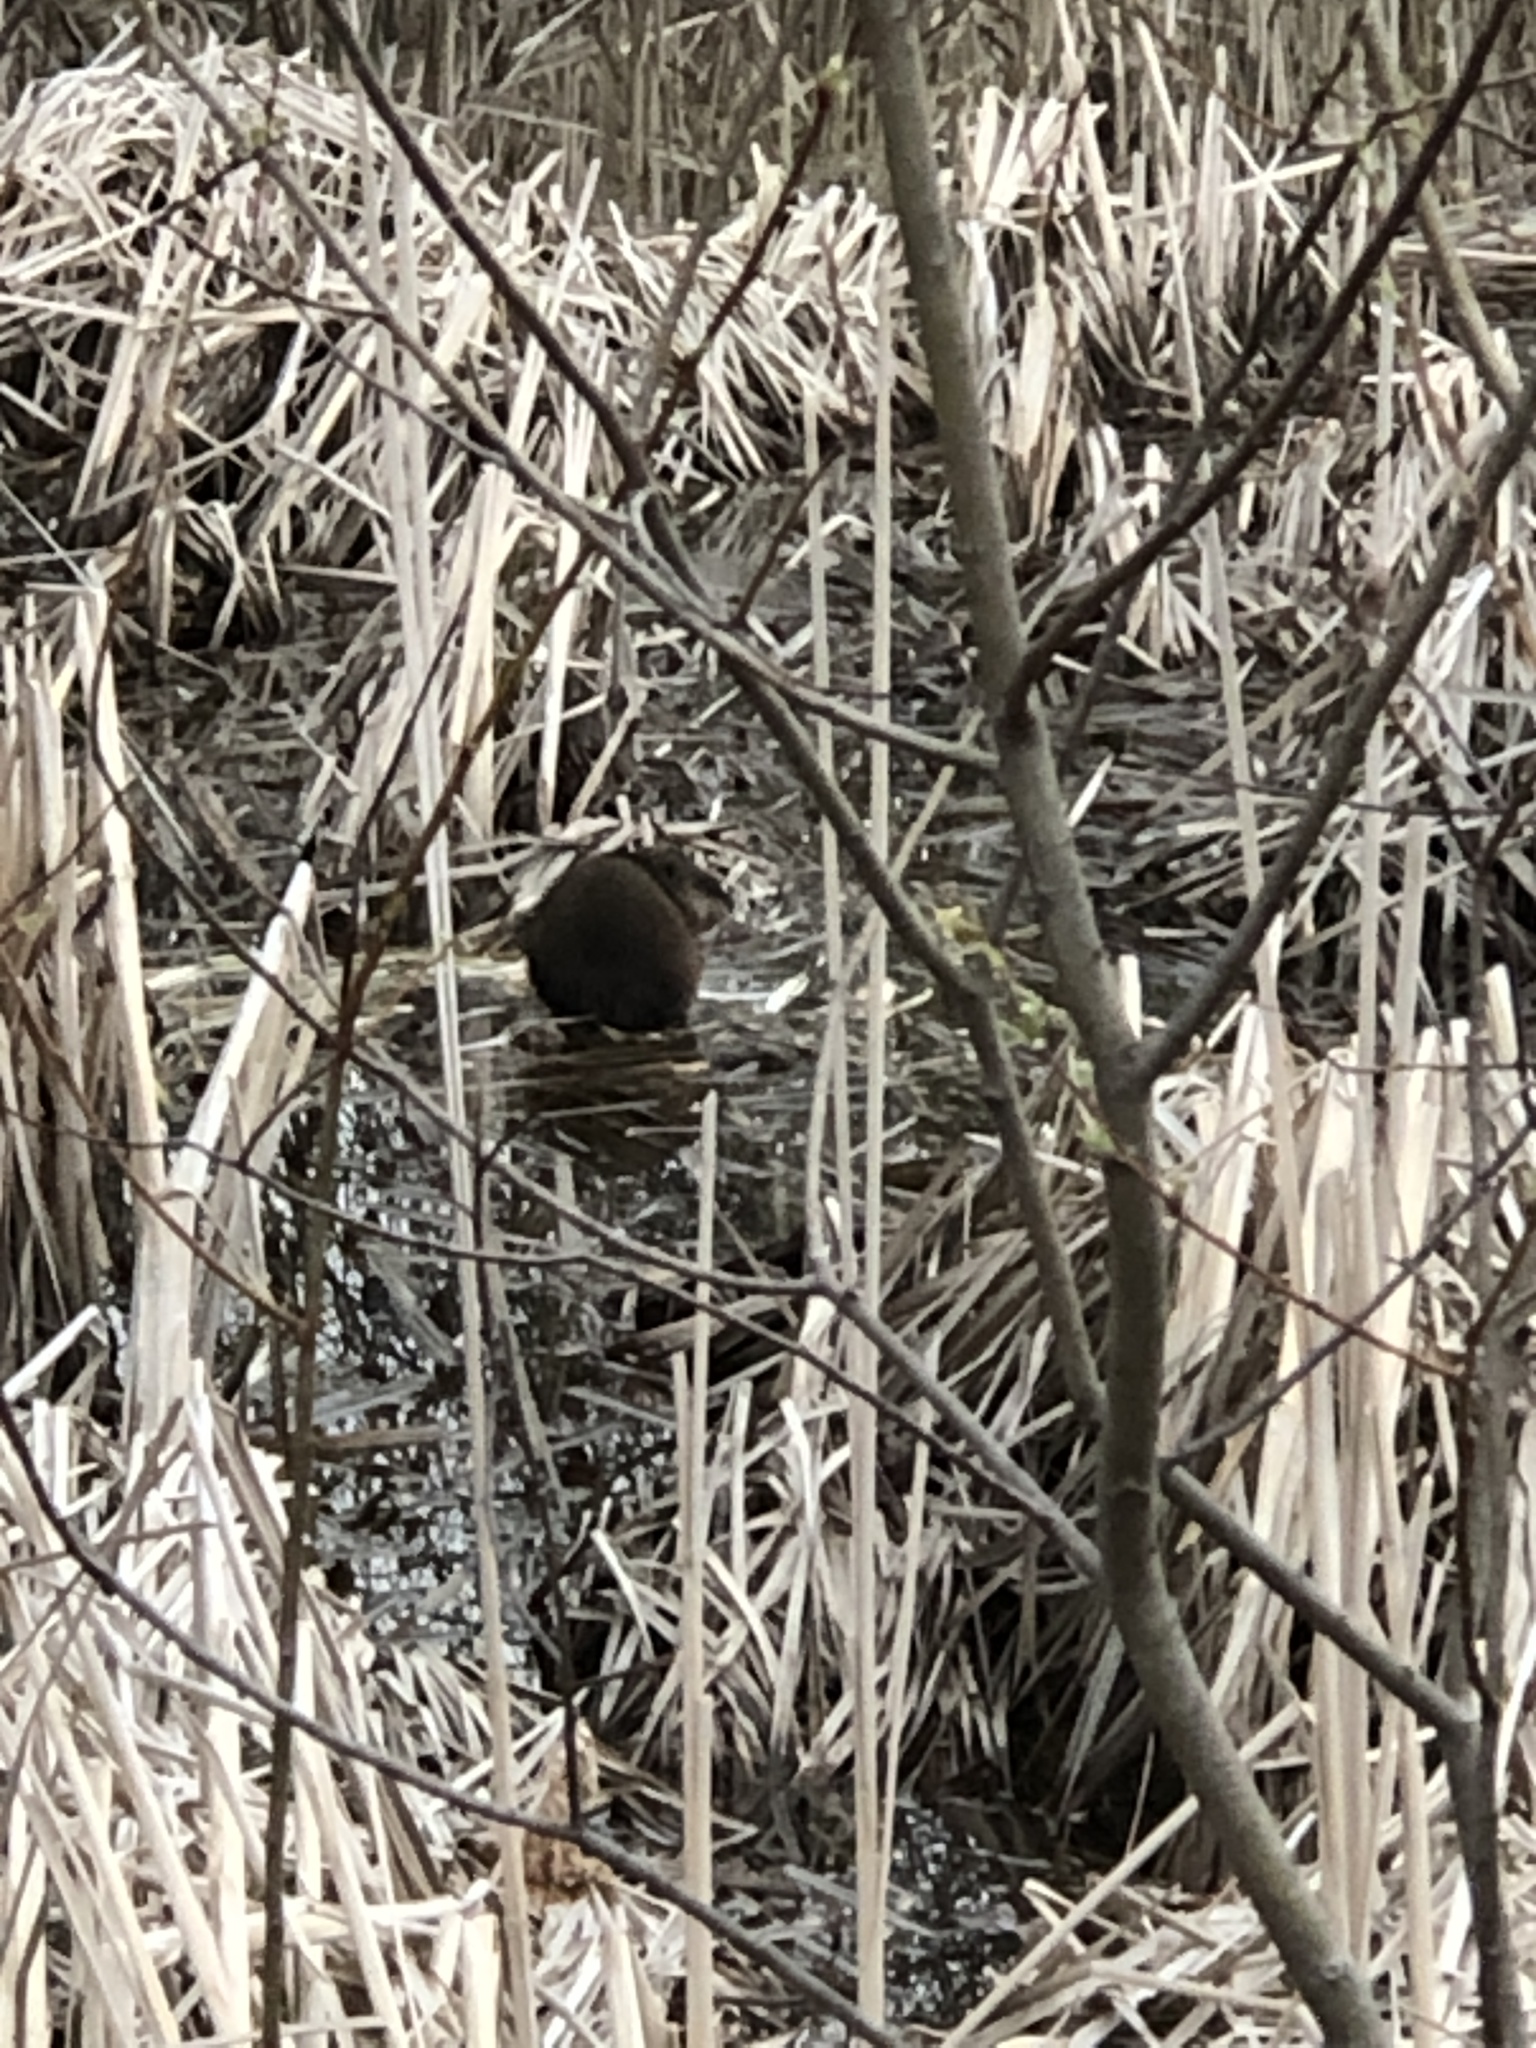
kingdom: Animalia
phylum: Chordata
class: Mammalia
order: Rodentia
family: Cricetidae
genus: Ondatra
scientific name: Ondatra zibethicus
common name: Muskrat
